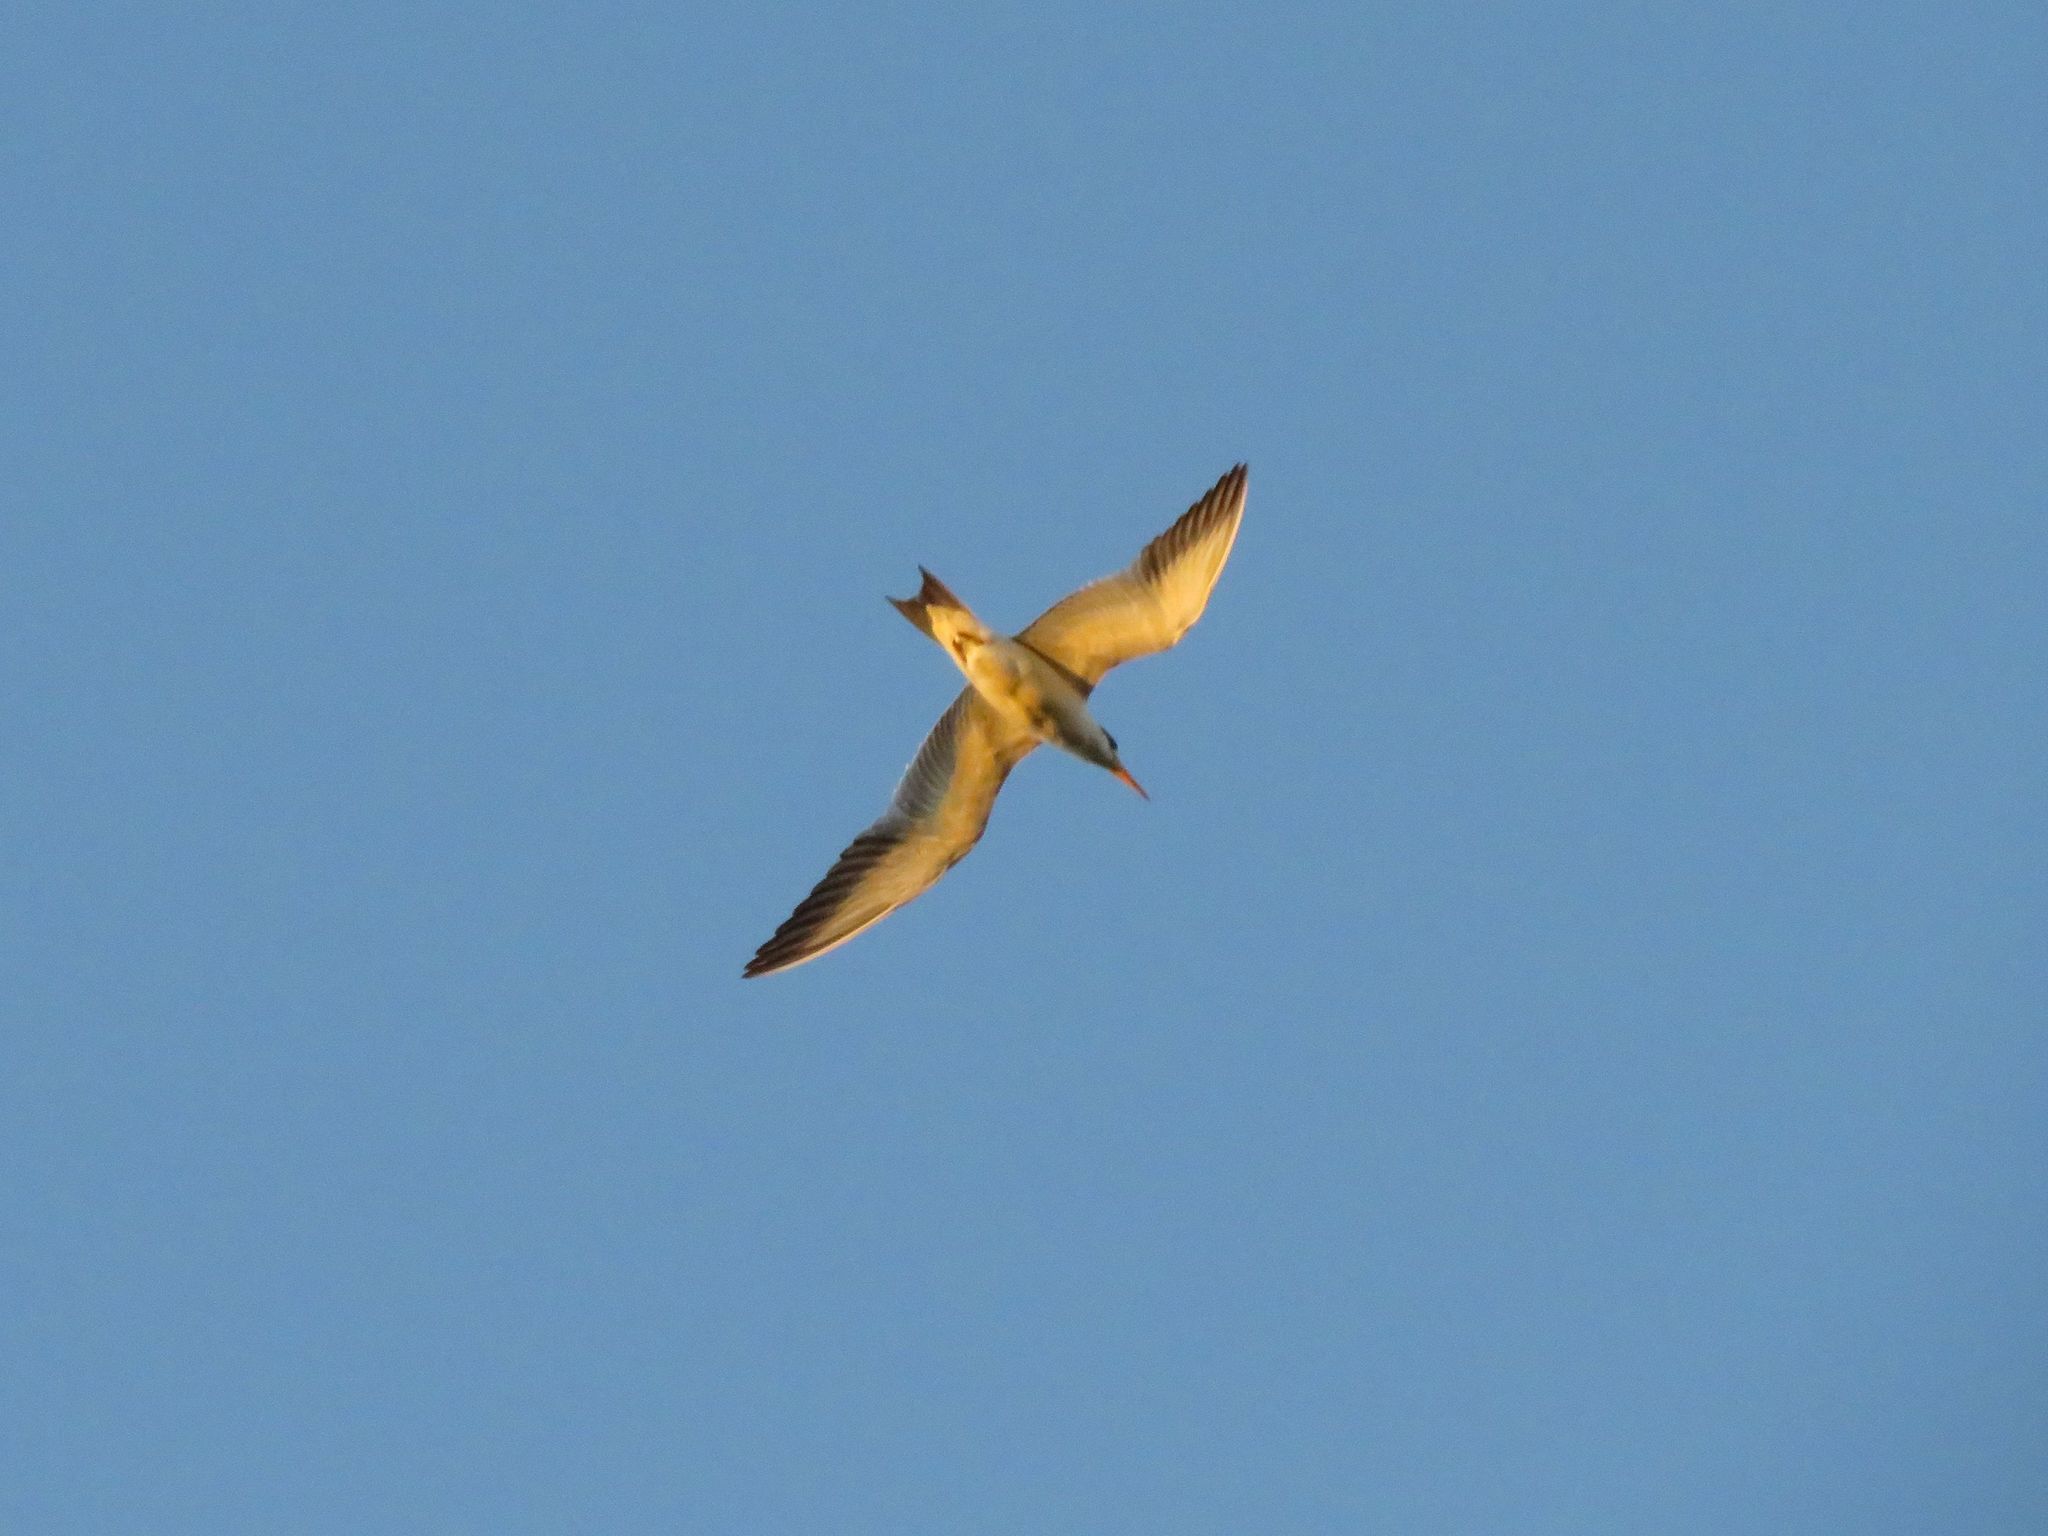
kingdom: Animalia
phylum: Chordata
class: Aves
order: Charadriiformes
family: Laridae
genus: Phaetusa
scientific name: Phaetusa simplex
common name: Large-billed tern
